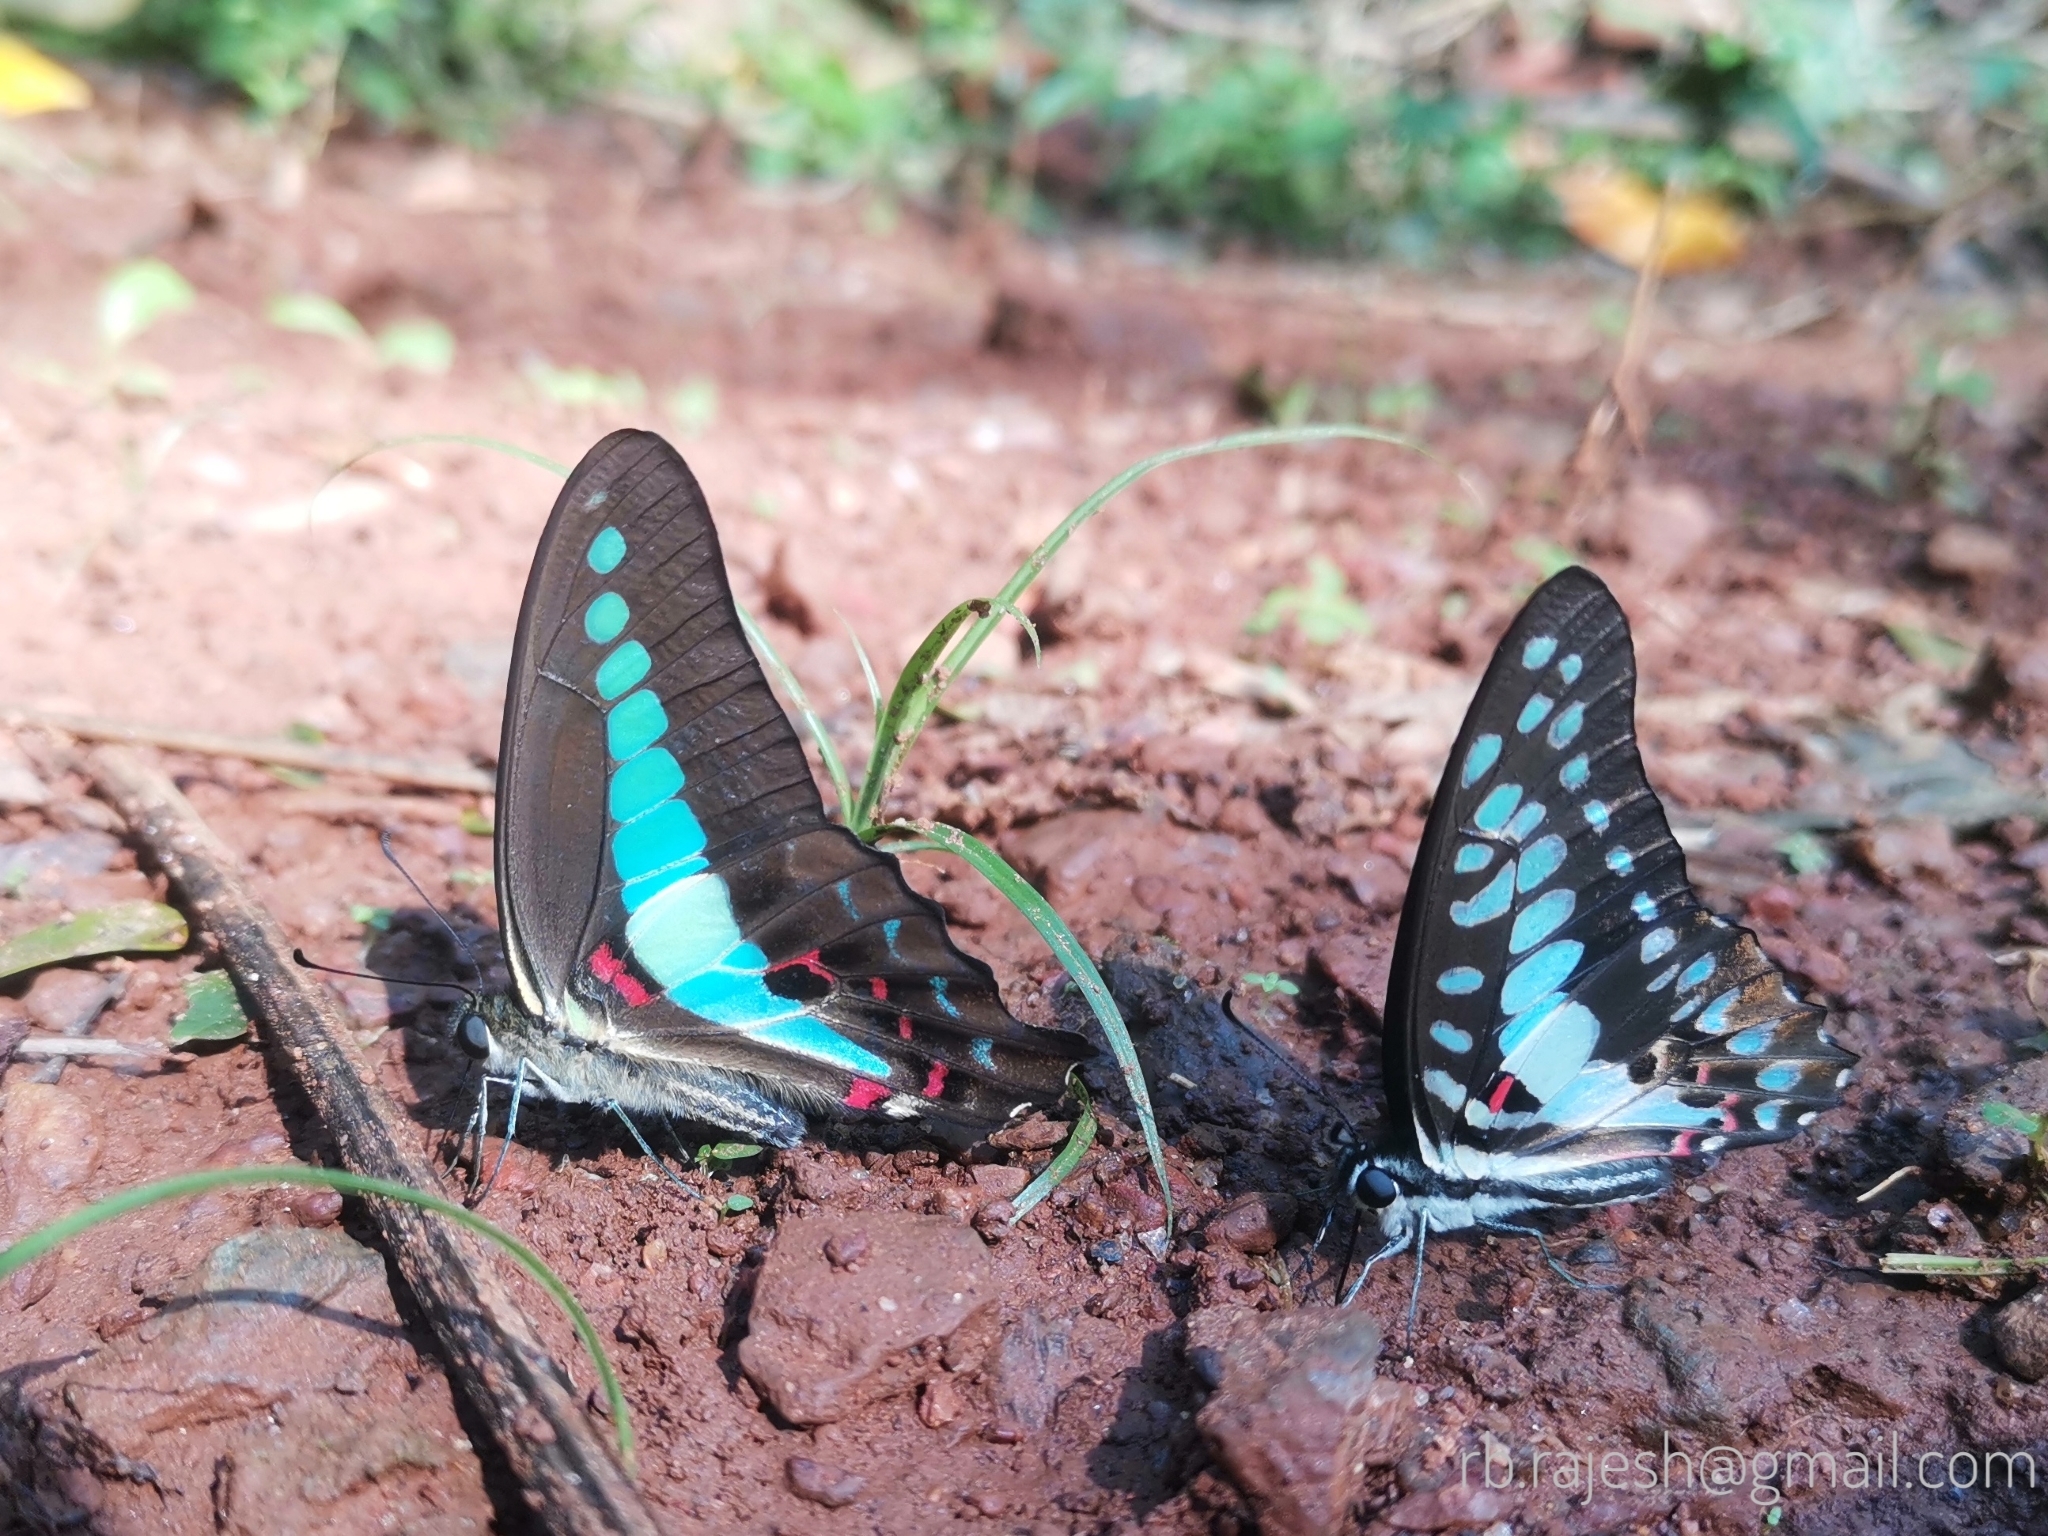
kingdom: Animalia
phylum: Arthropoda
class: Insecta
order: Lepidoptera
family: Papilionidae
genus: Graphium
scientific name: Graphium doson
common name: Common jay
